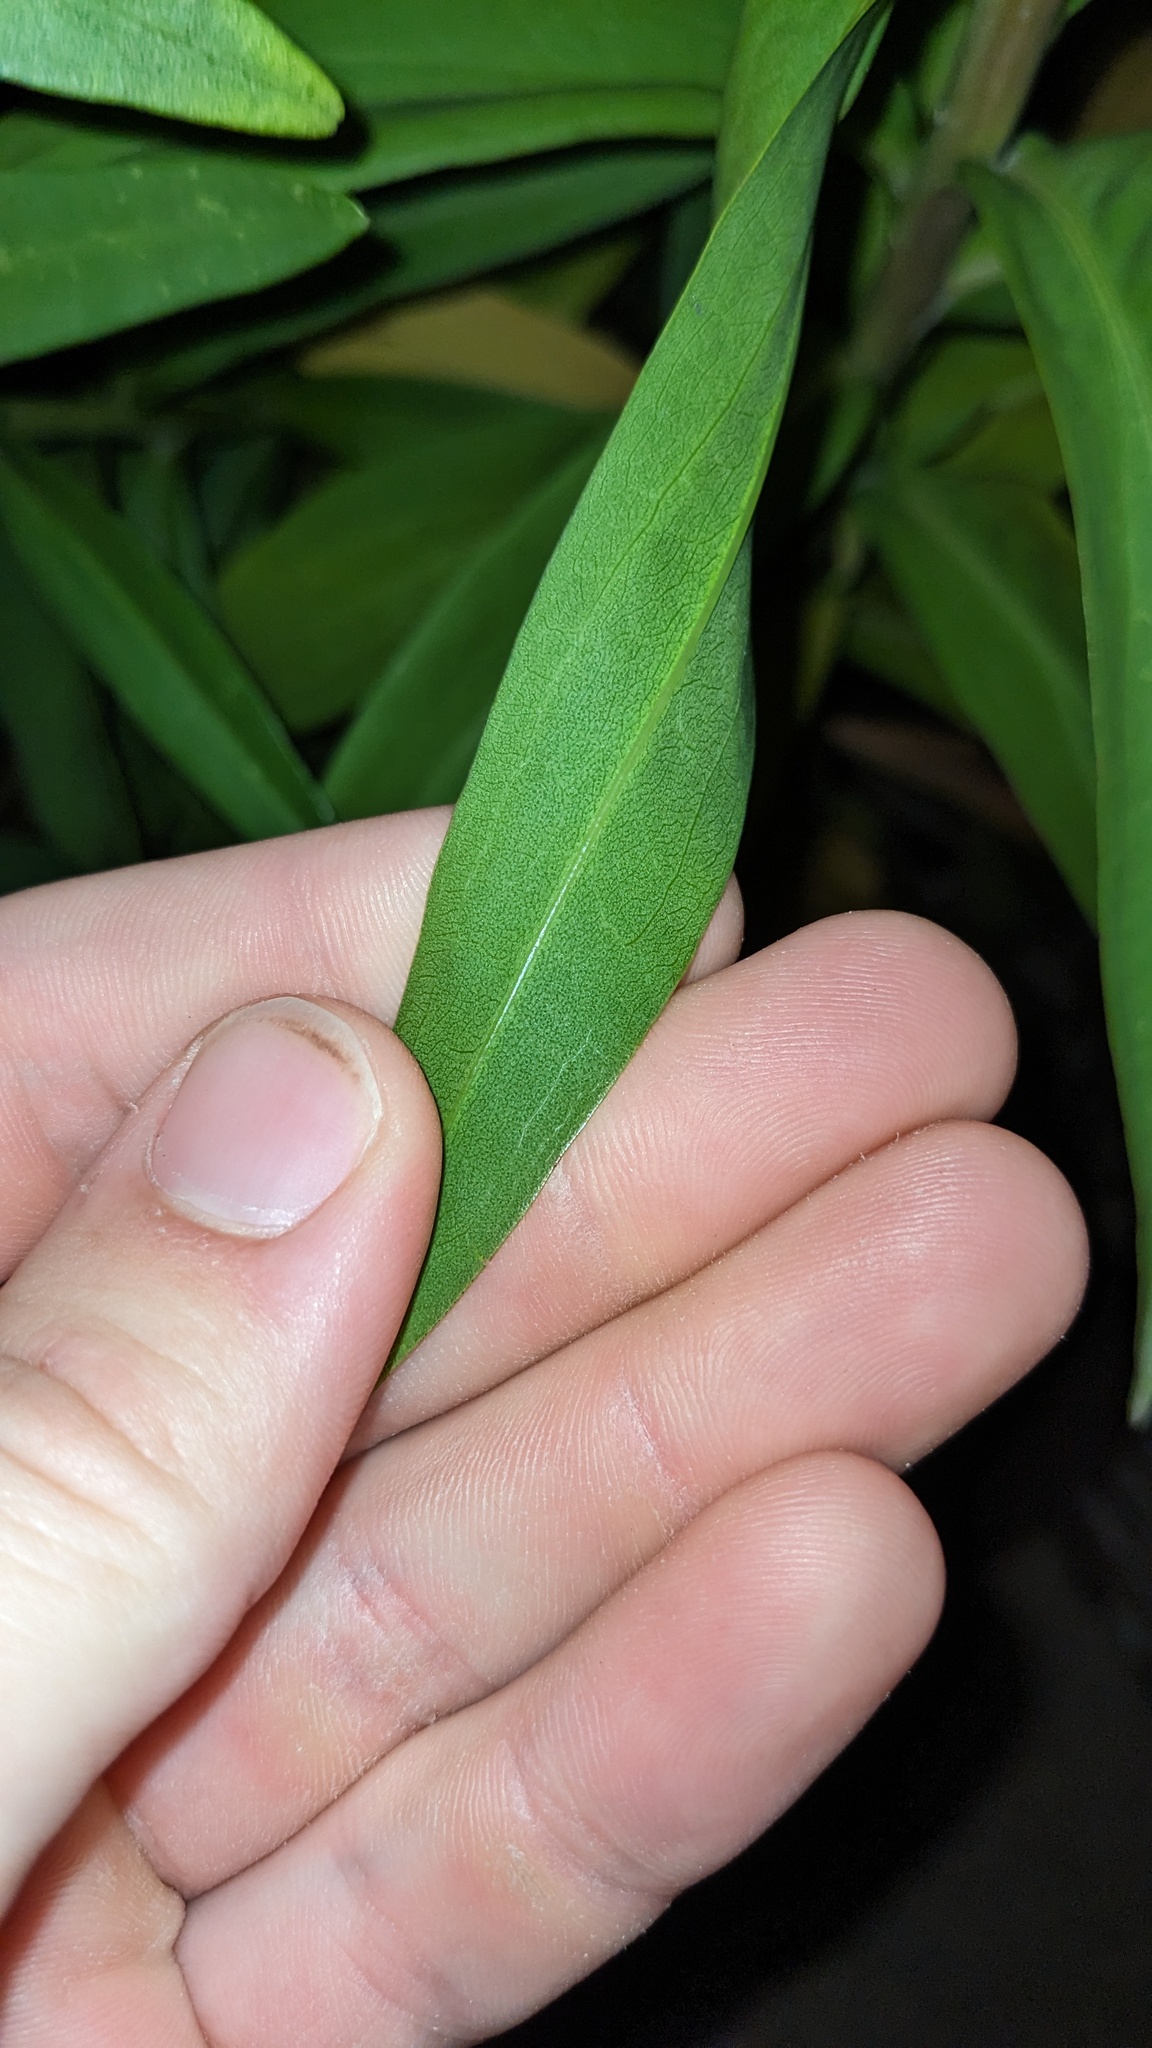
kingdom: Plantae
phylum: Tracheophyta
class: Magnoliopsida
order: Asterales
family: Asteraceae
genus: Solidago
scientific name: Solidago sempervirens
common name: Salt-marsh goldenrod
